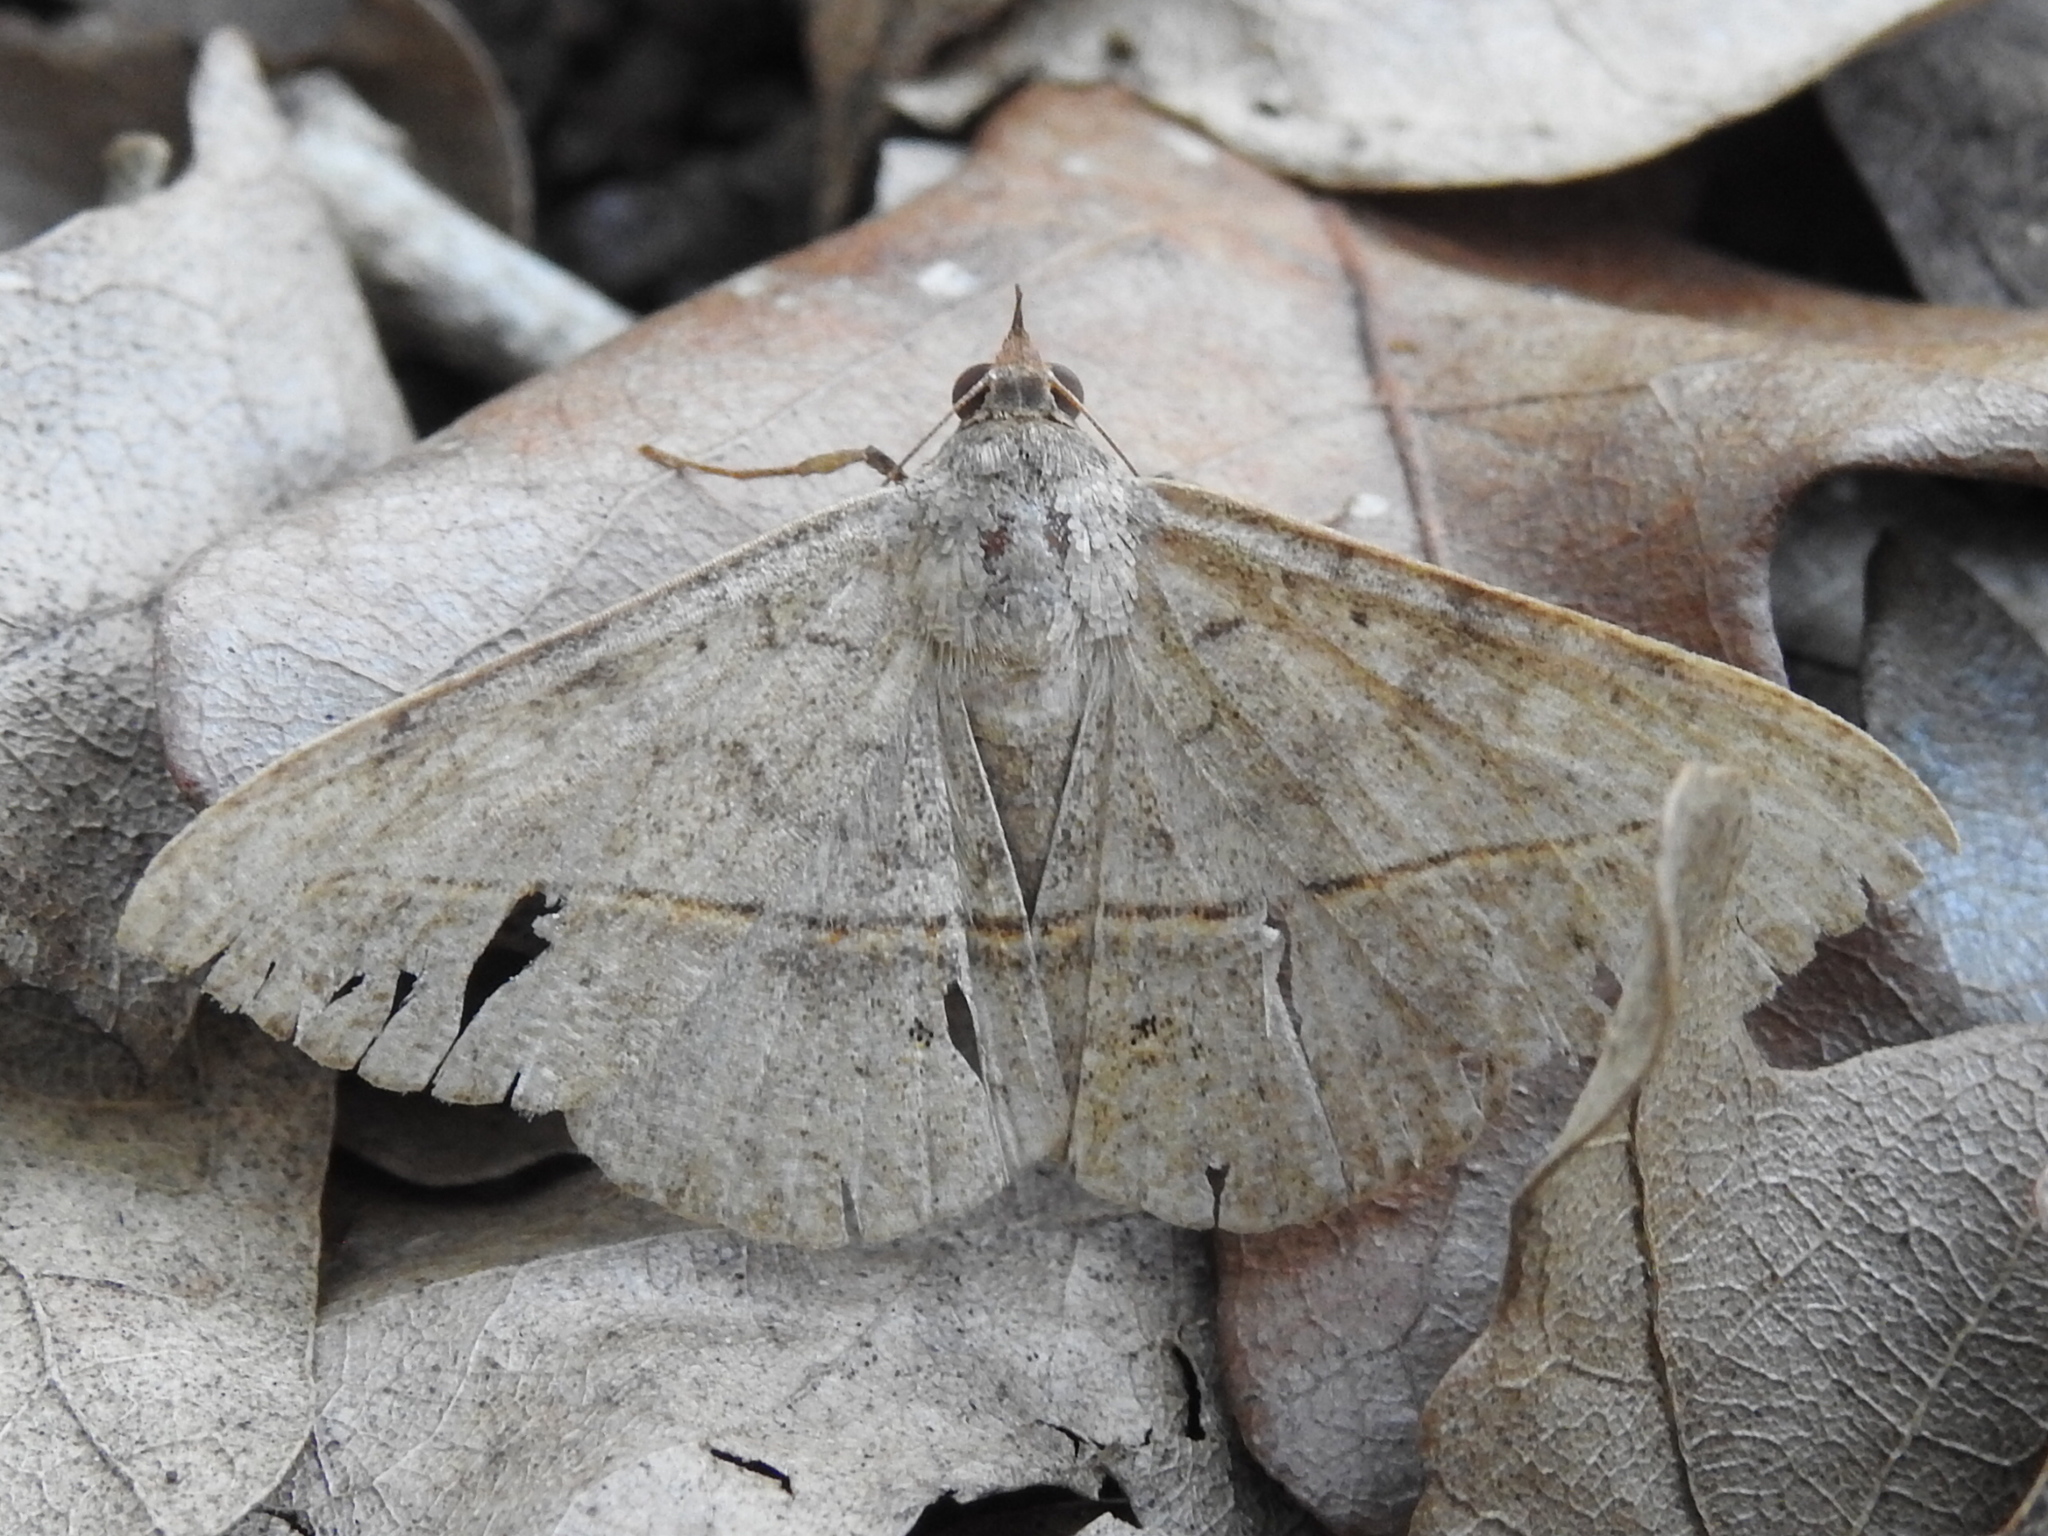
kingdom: Animalia
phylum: Arthropoda
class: Insecta
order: Lepidoptera
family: Erebidae
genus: Anticarsia
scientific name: Anticarsia gemmatalis
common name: Cutworm moth
